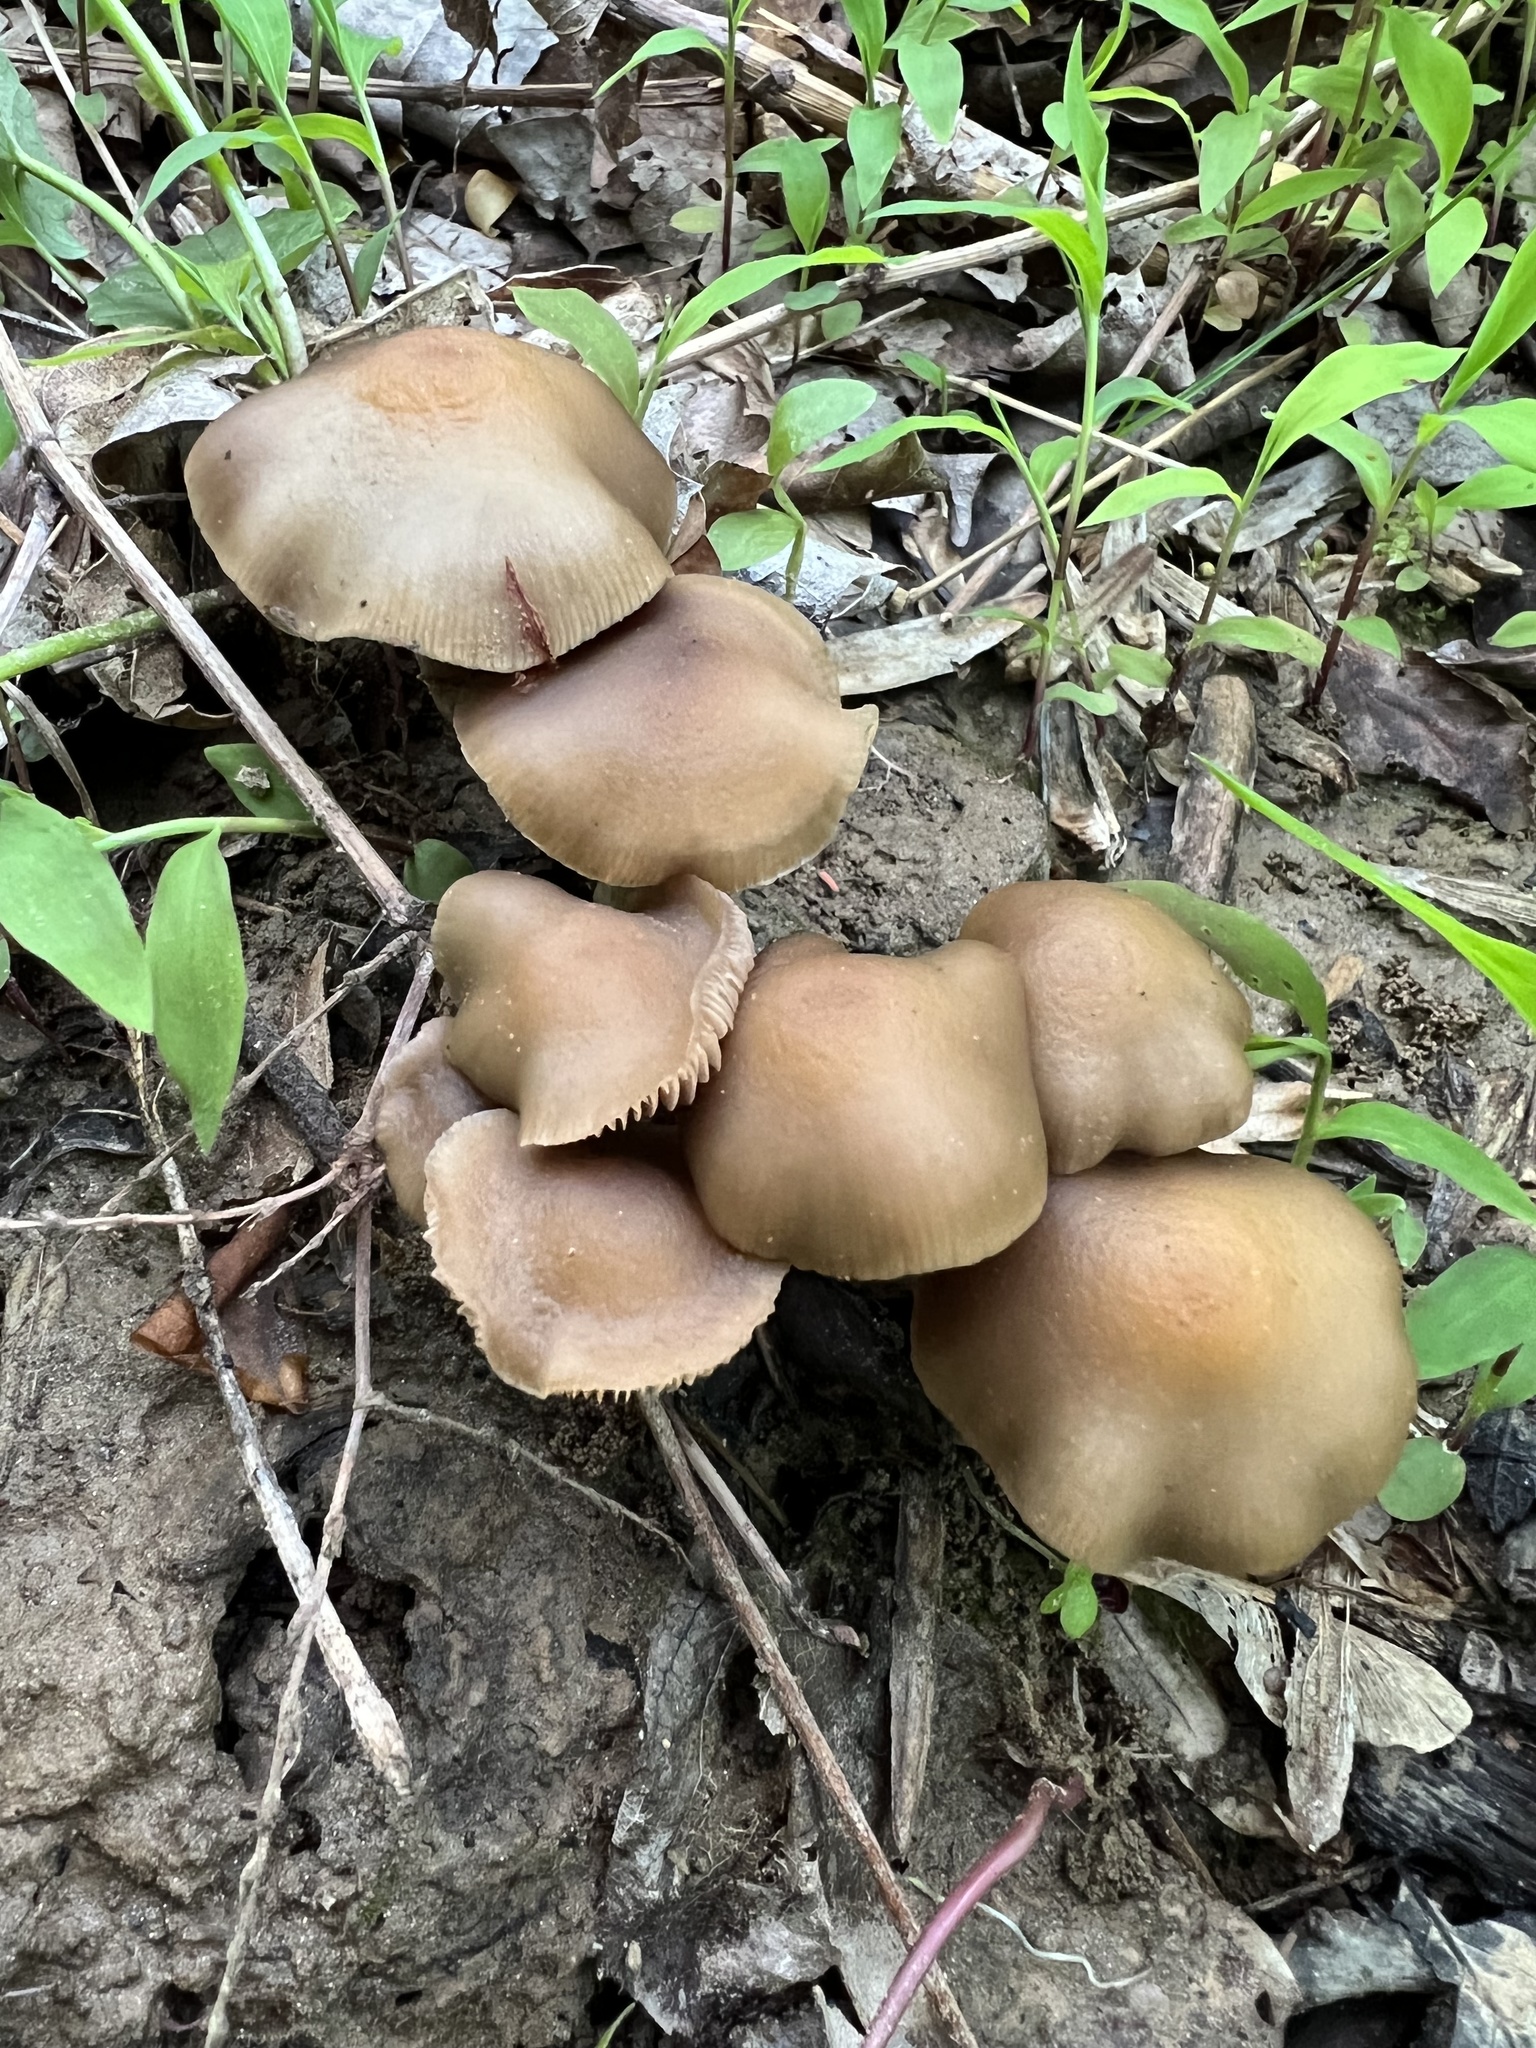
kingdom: Fungi
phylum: Basidiomycota
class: Agaricomycetes
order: Agaricales
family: Hymenogastraceae
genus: Psilocybe
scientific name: Psilocybe ovoideocystidiata
